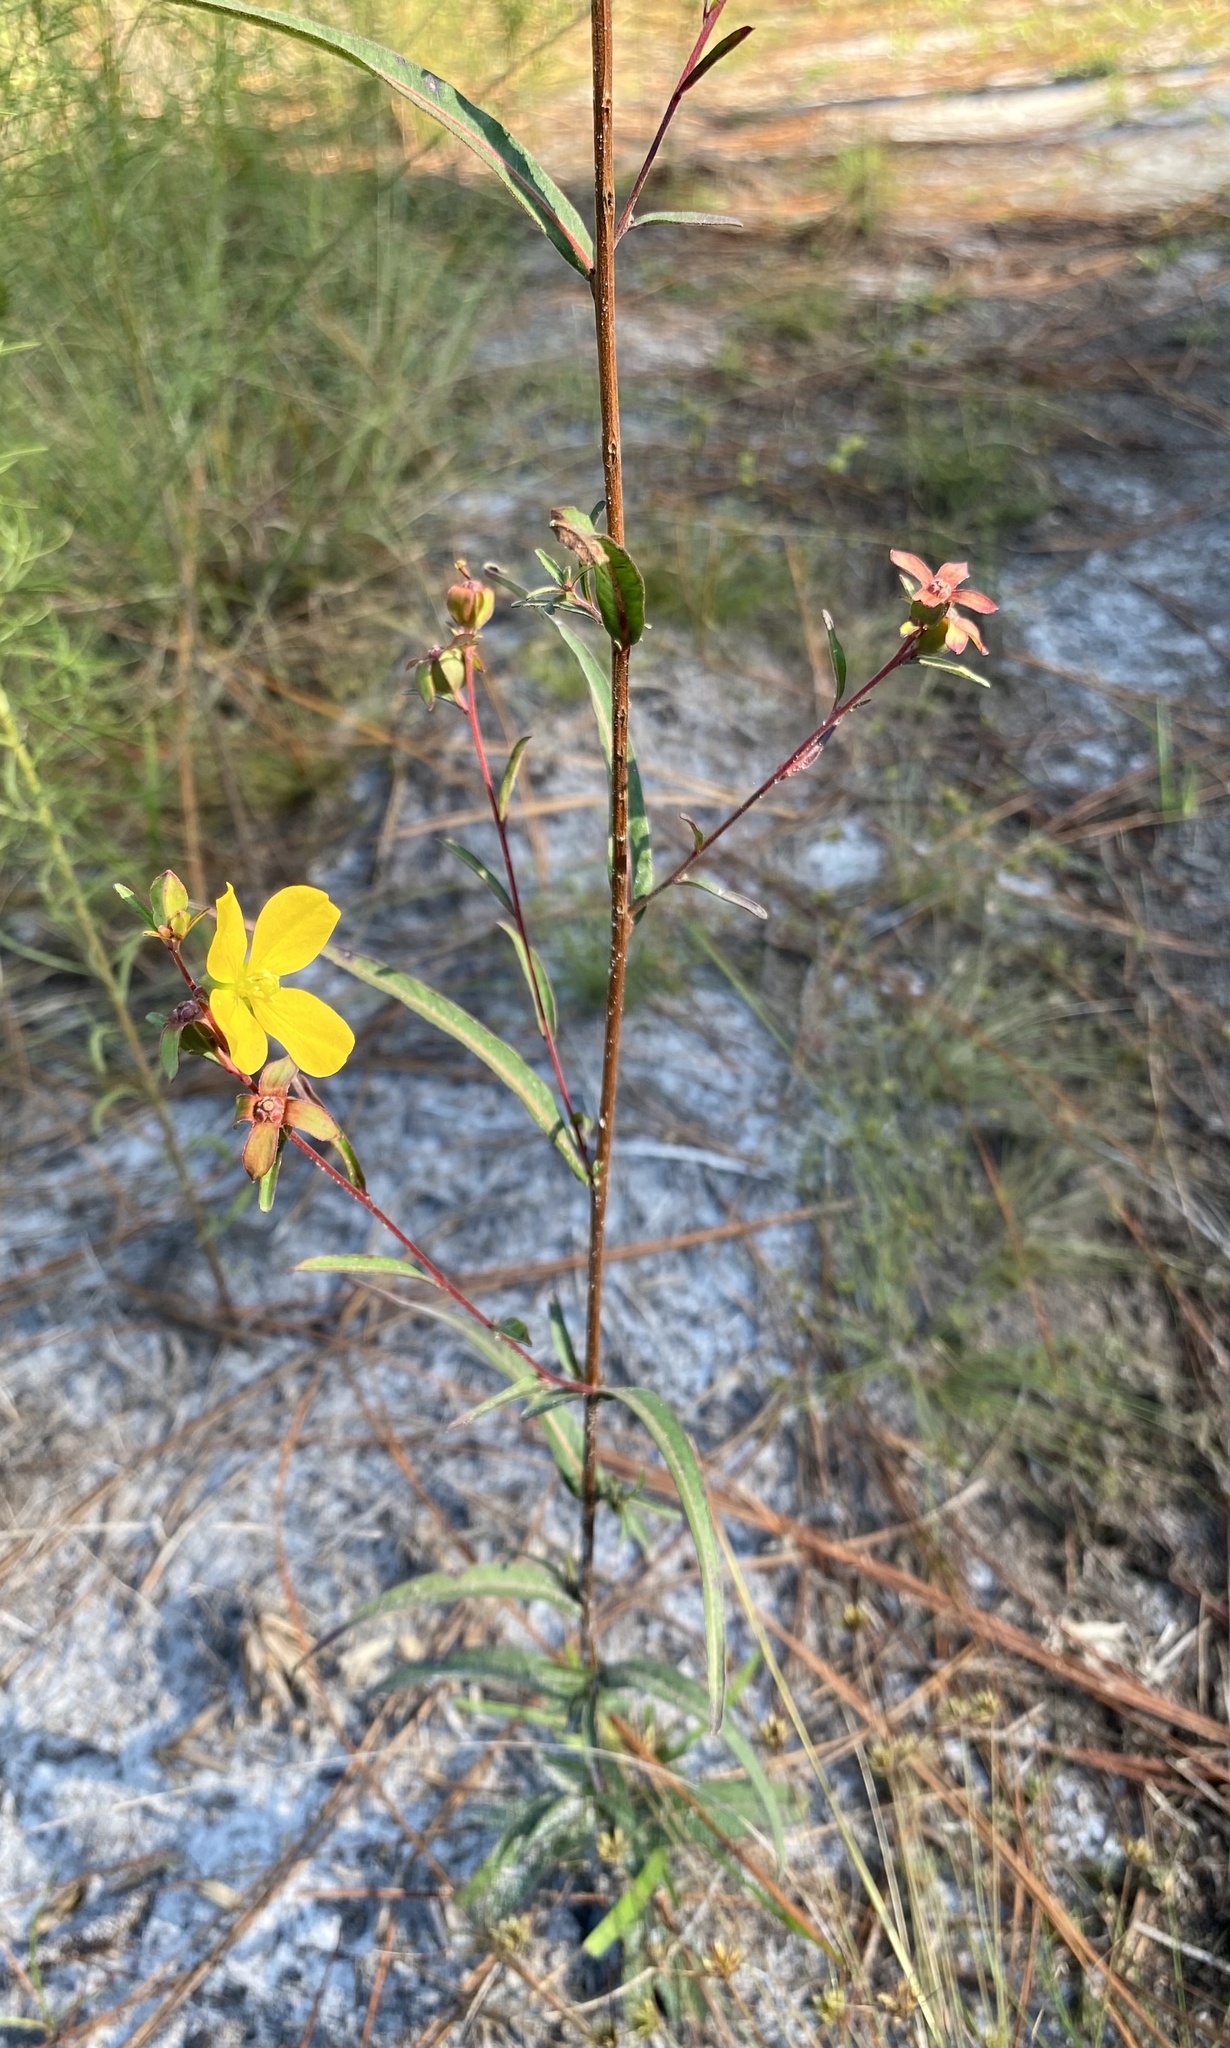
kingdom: Plantae
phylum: Tracheophyta
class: Magnoliopsida
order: Myrtales
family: Onagraceae
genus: Ludwigia
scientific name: Ludwigia maritima
